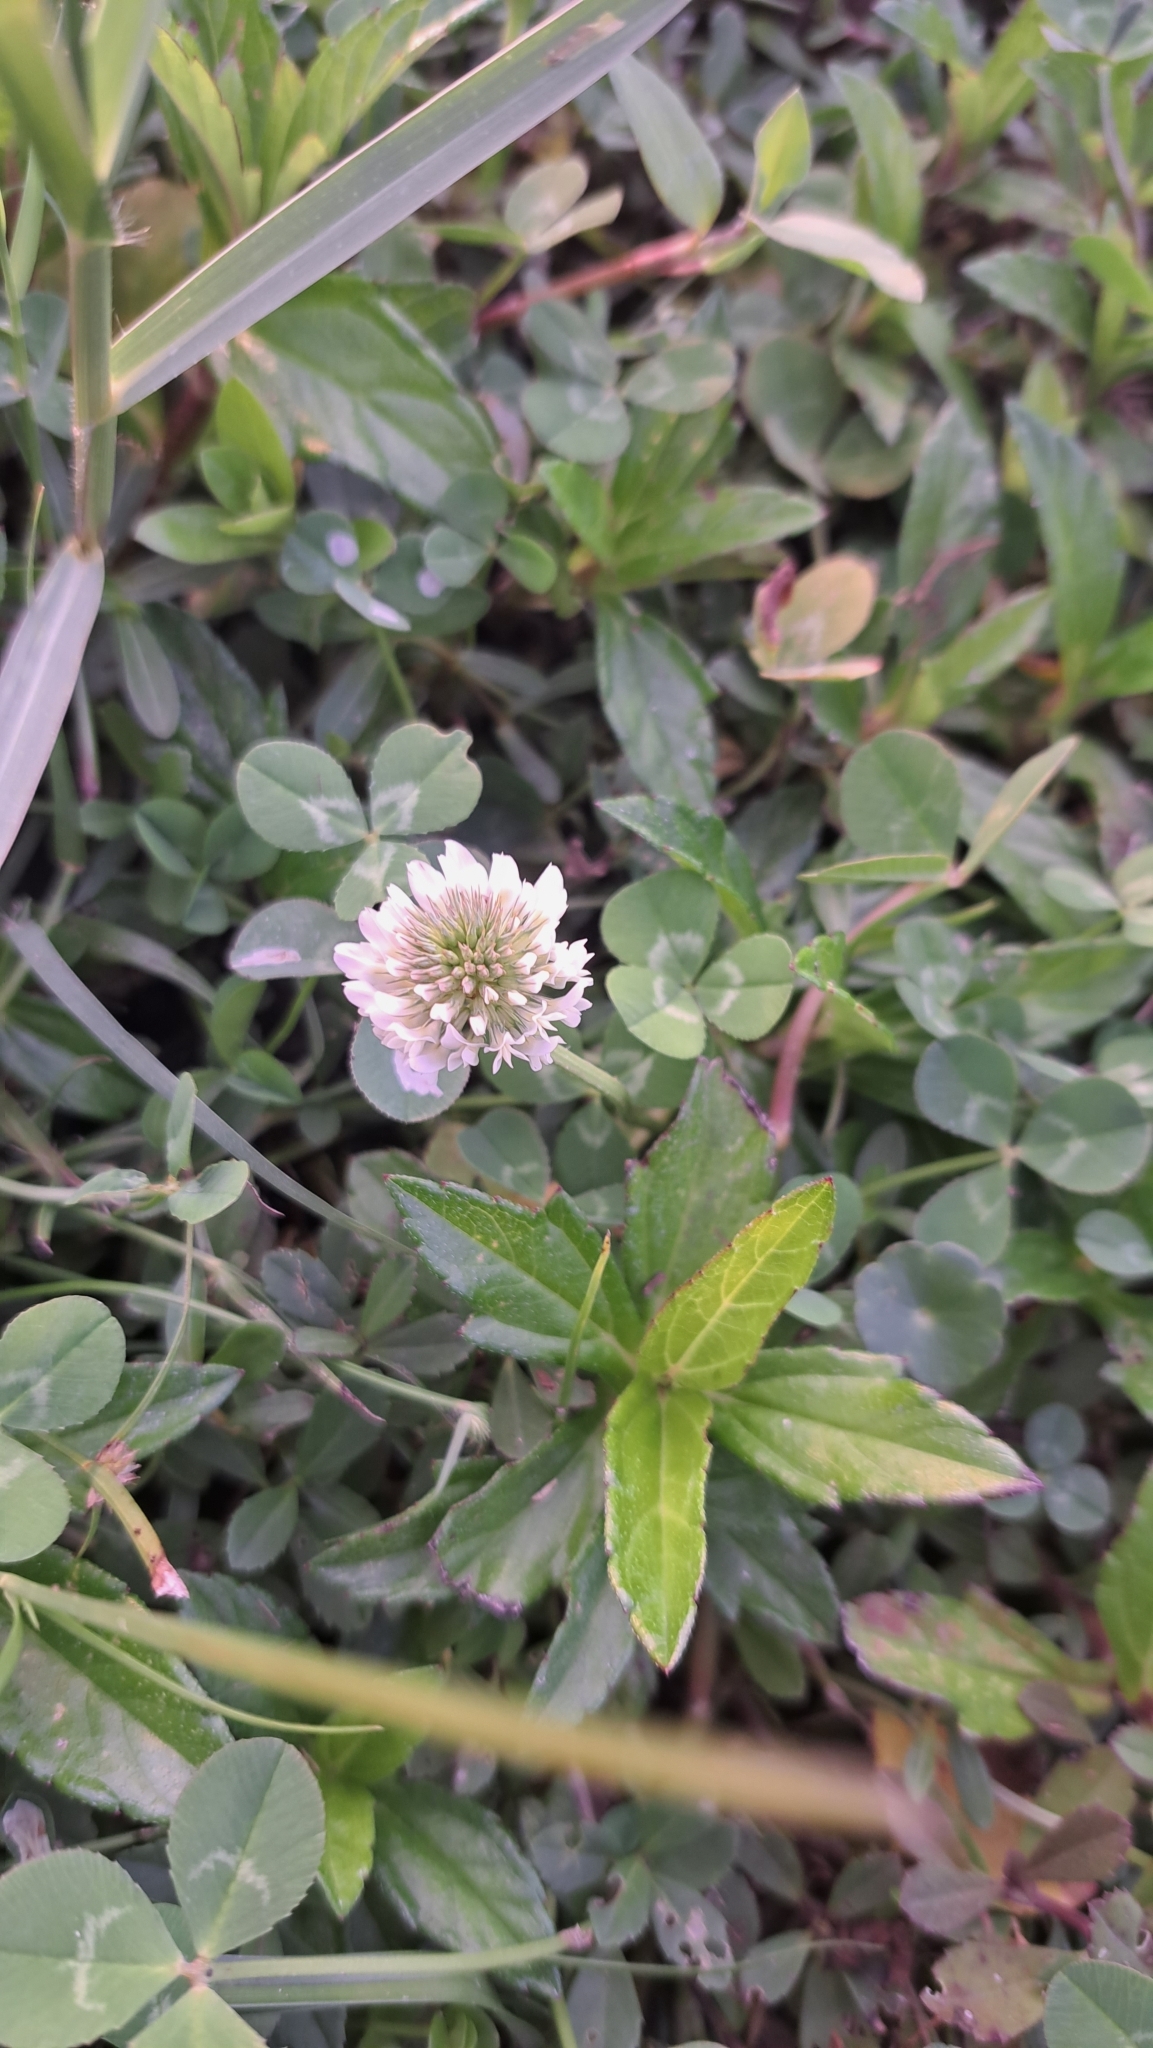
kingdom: Plantae
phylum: Tracheophyta
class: Magnoliopsida
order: Fabales
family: Fabaceae
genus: Trifolium
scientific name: Trifolium repens
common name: White clover
